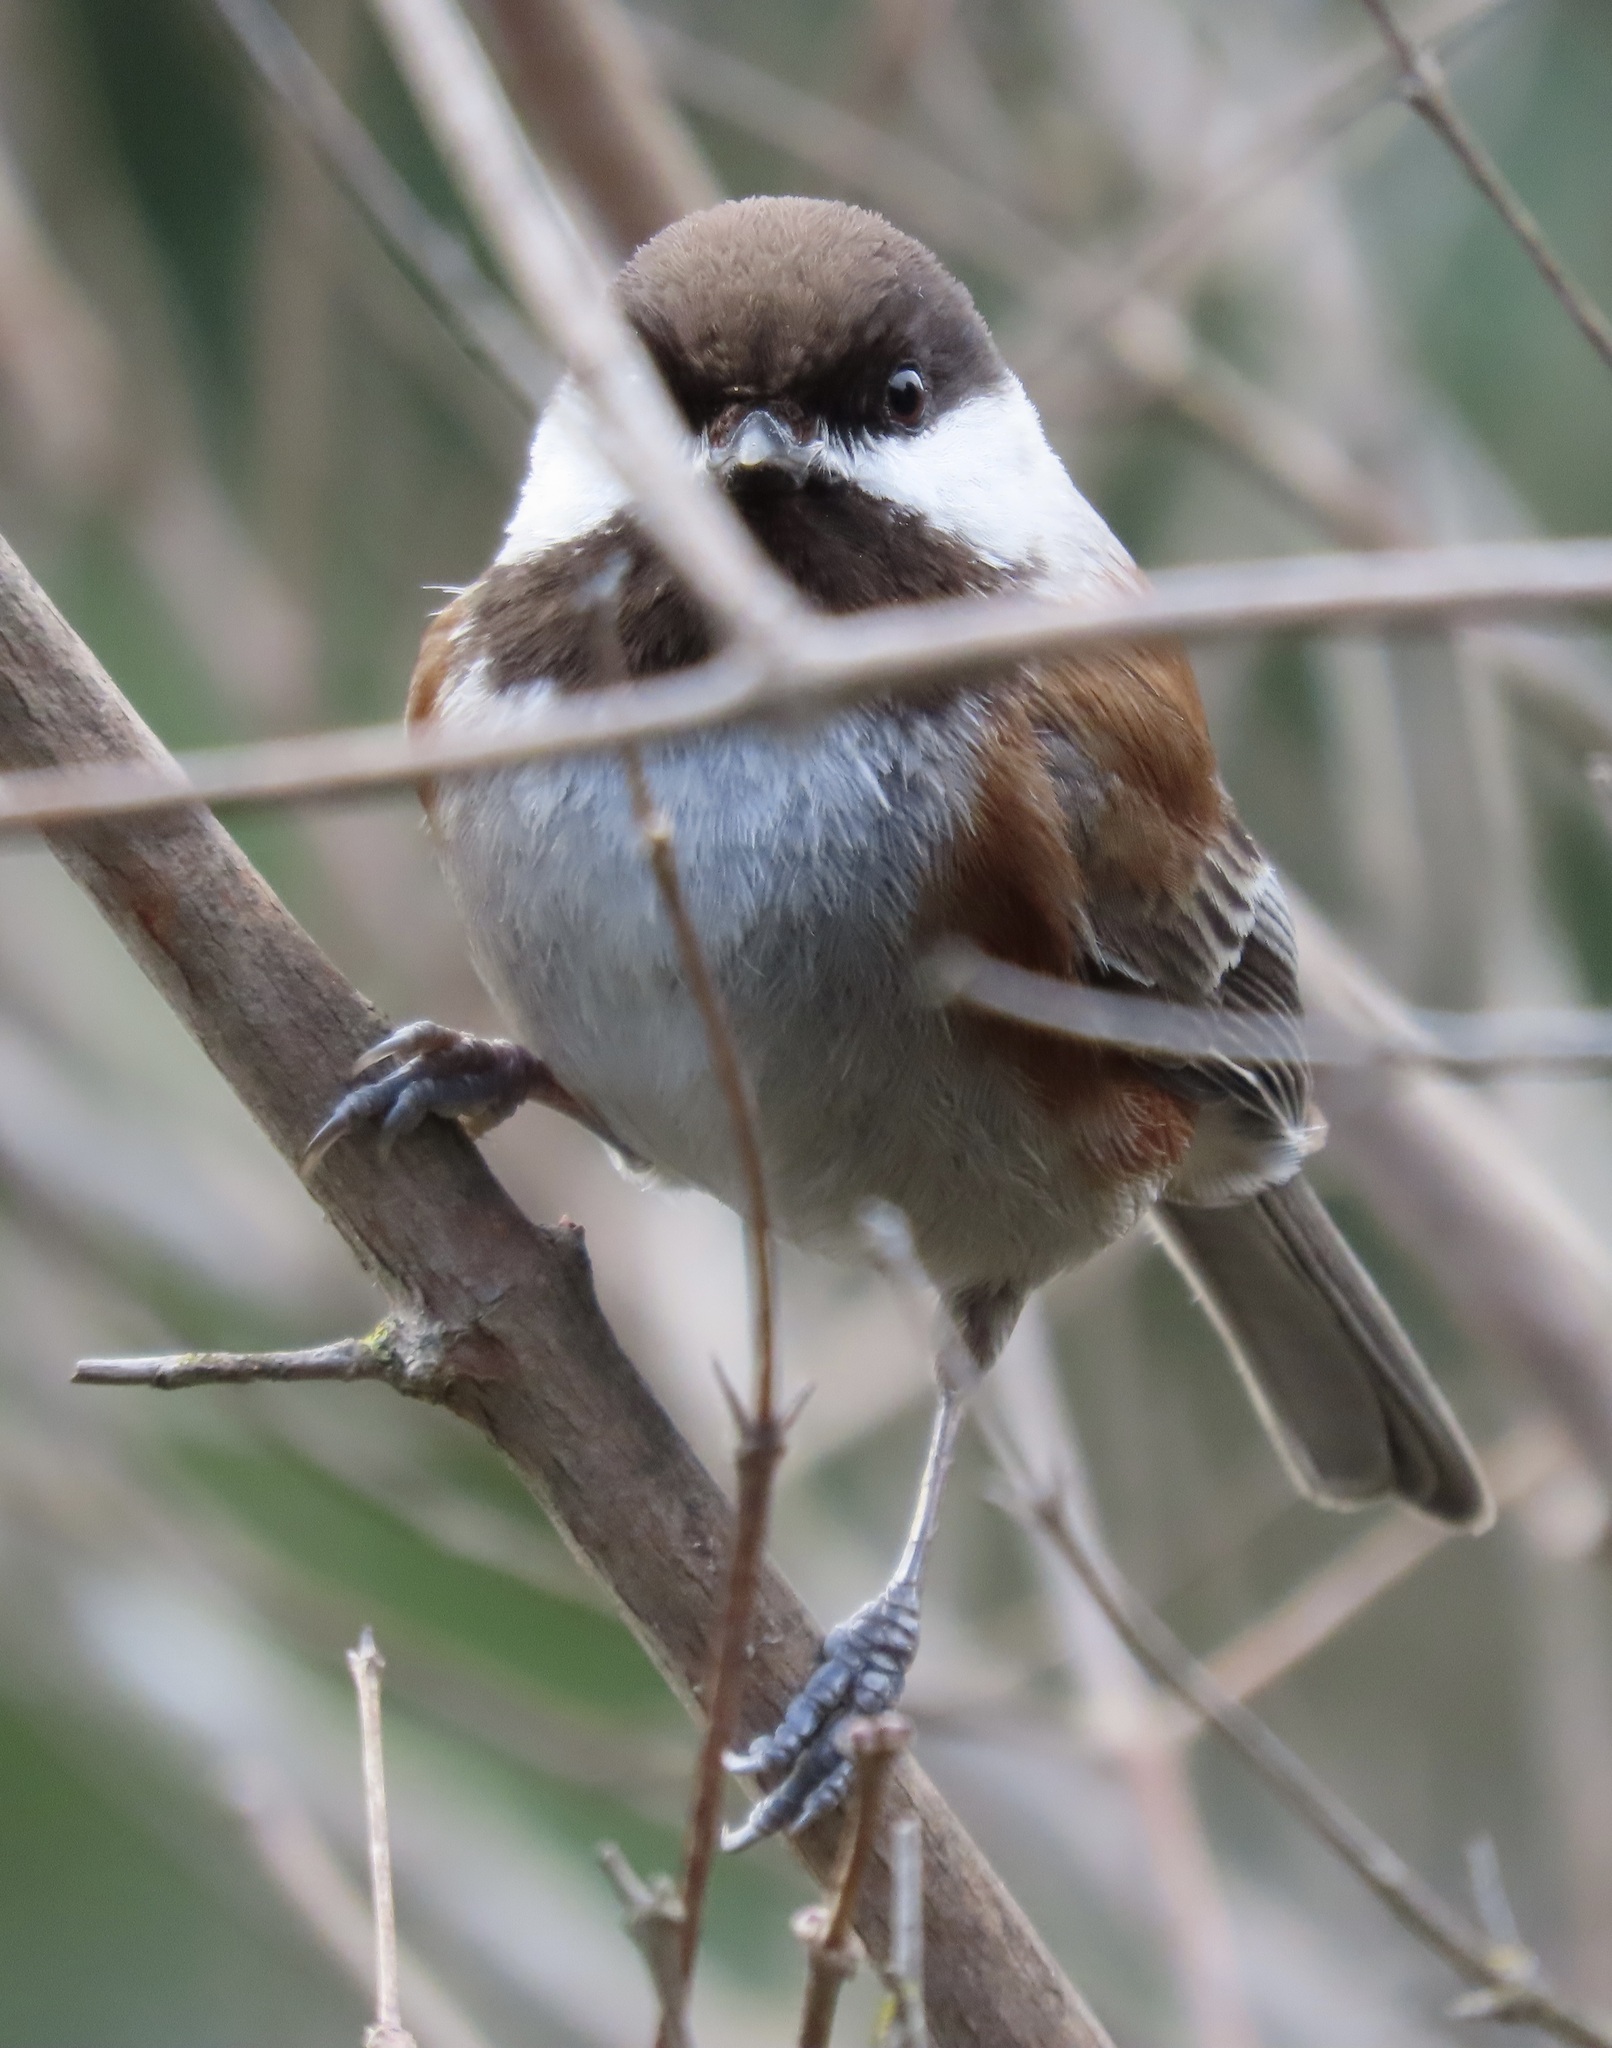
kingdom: Animalia
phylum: Chordata
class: Aves
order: Passeriformes
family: Paridae
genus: Poecile
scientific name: Poecile rufescens
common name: Chestnut-backed chickadee
